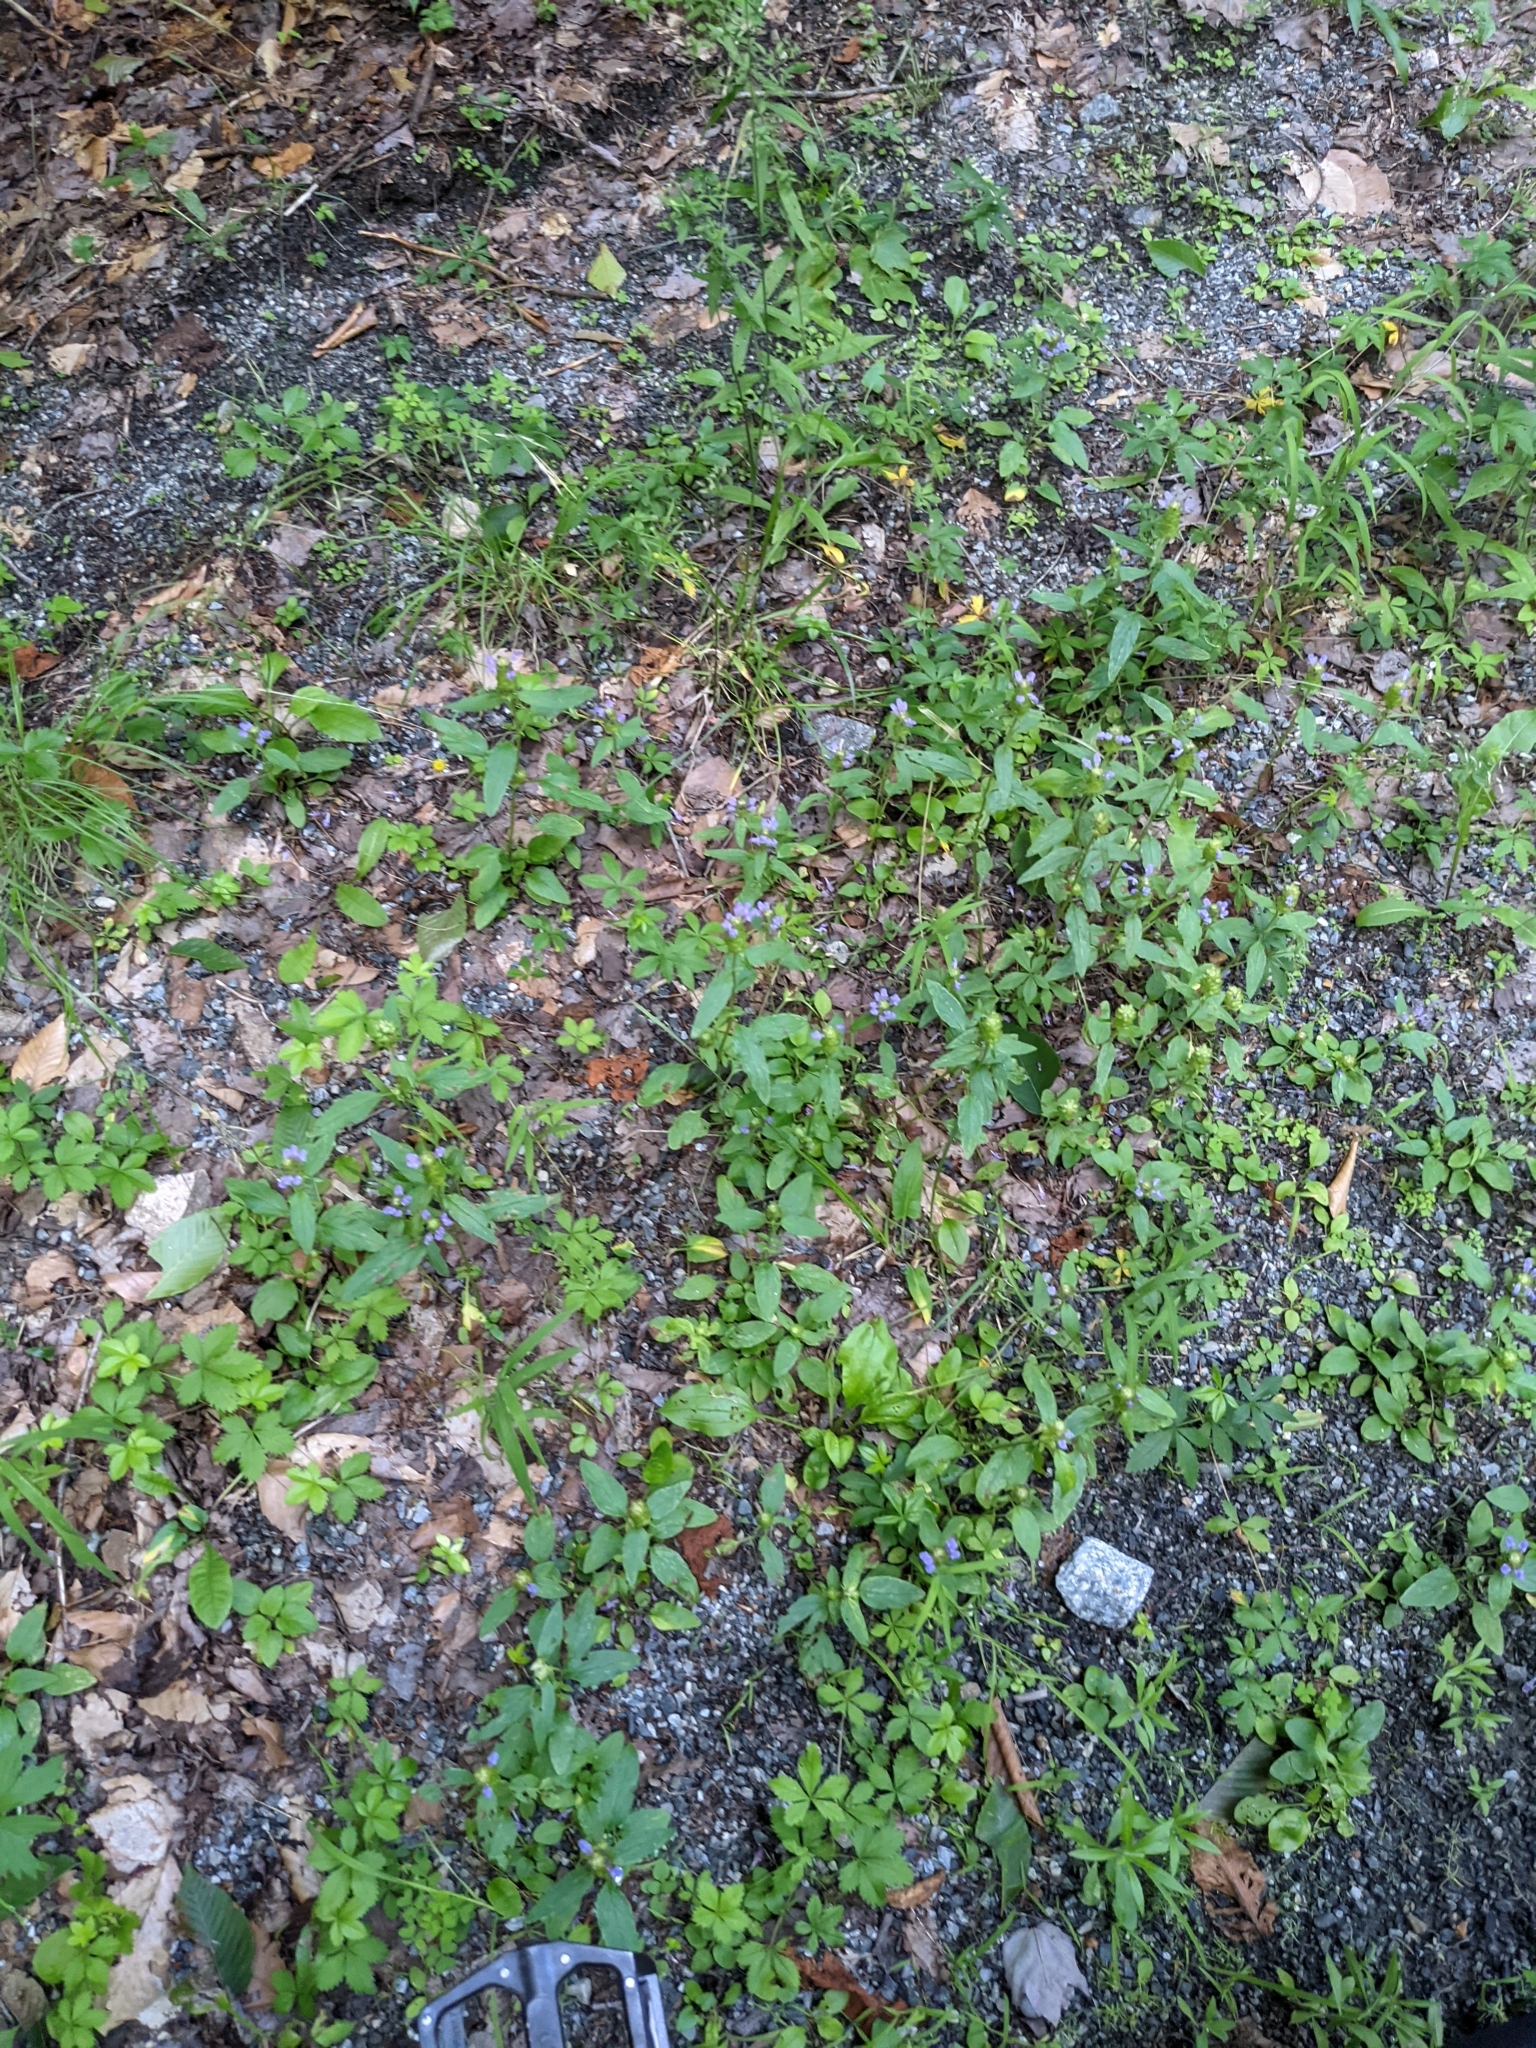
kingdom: Plantae
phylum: Tracheophyta
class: Magnoliopsida
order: Lamiales
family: Lamiaceae
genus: Prunella
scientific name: Prunella vulgaris
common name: Heal-all
